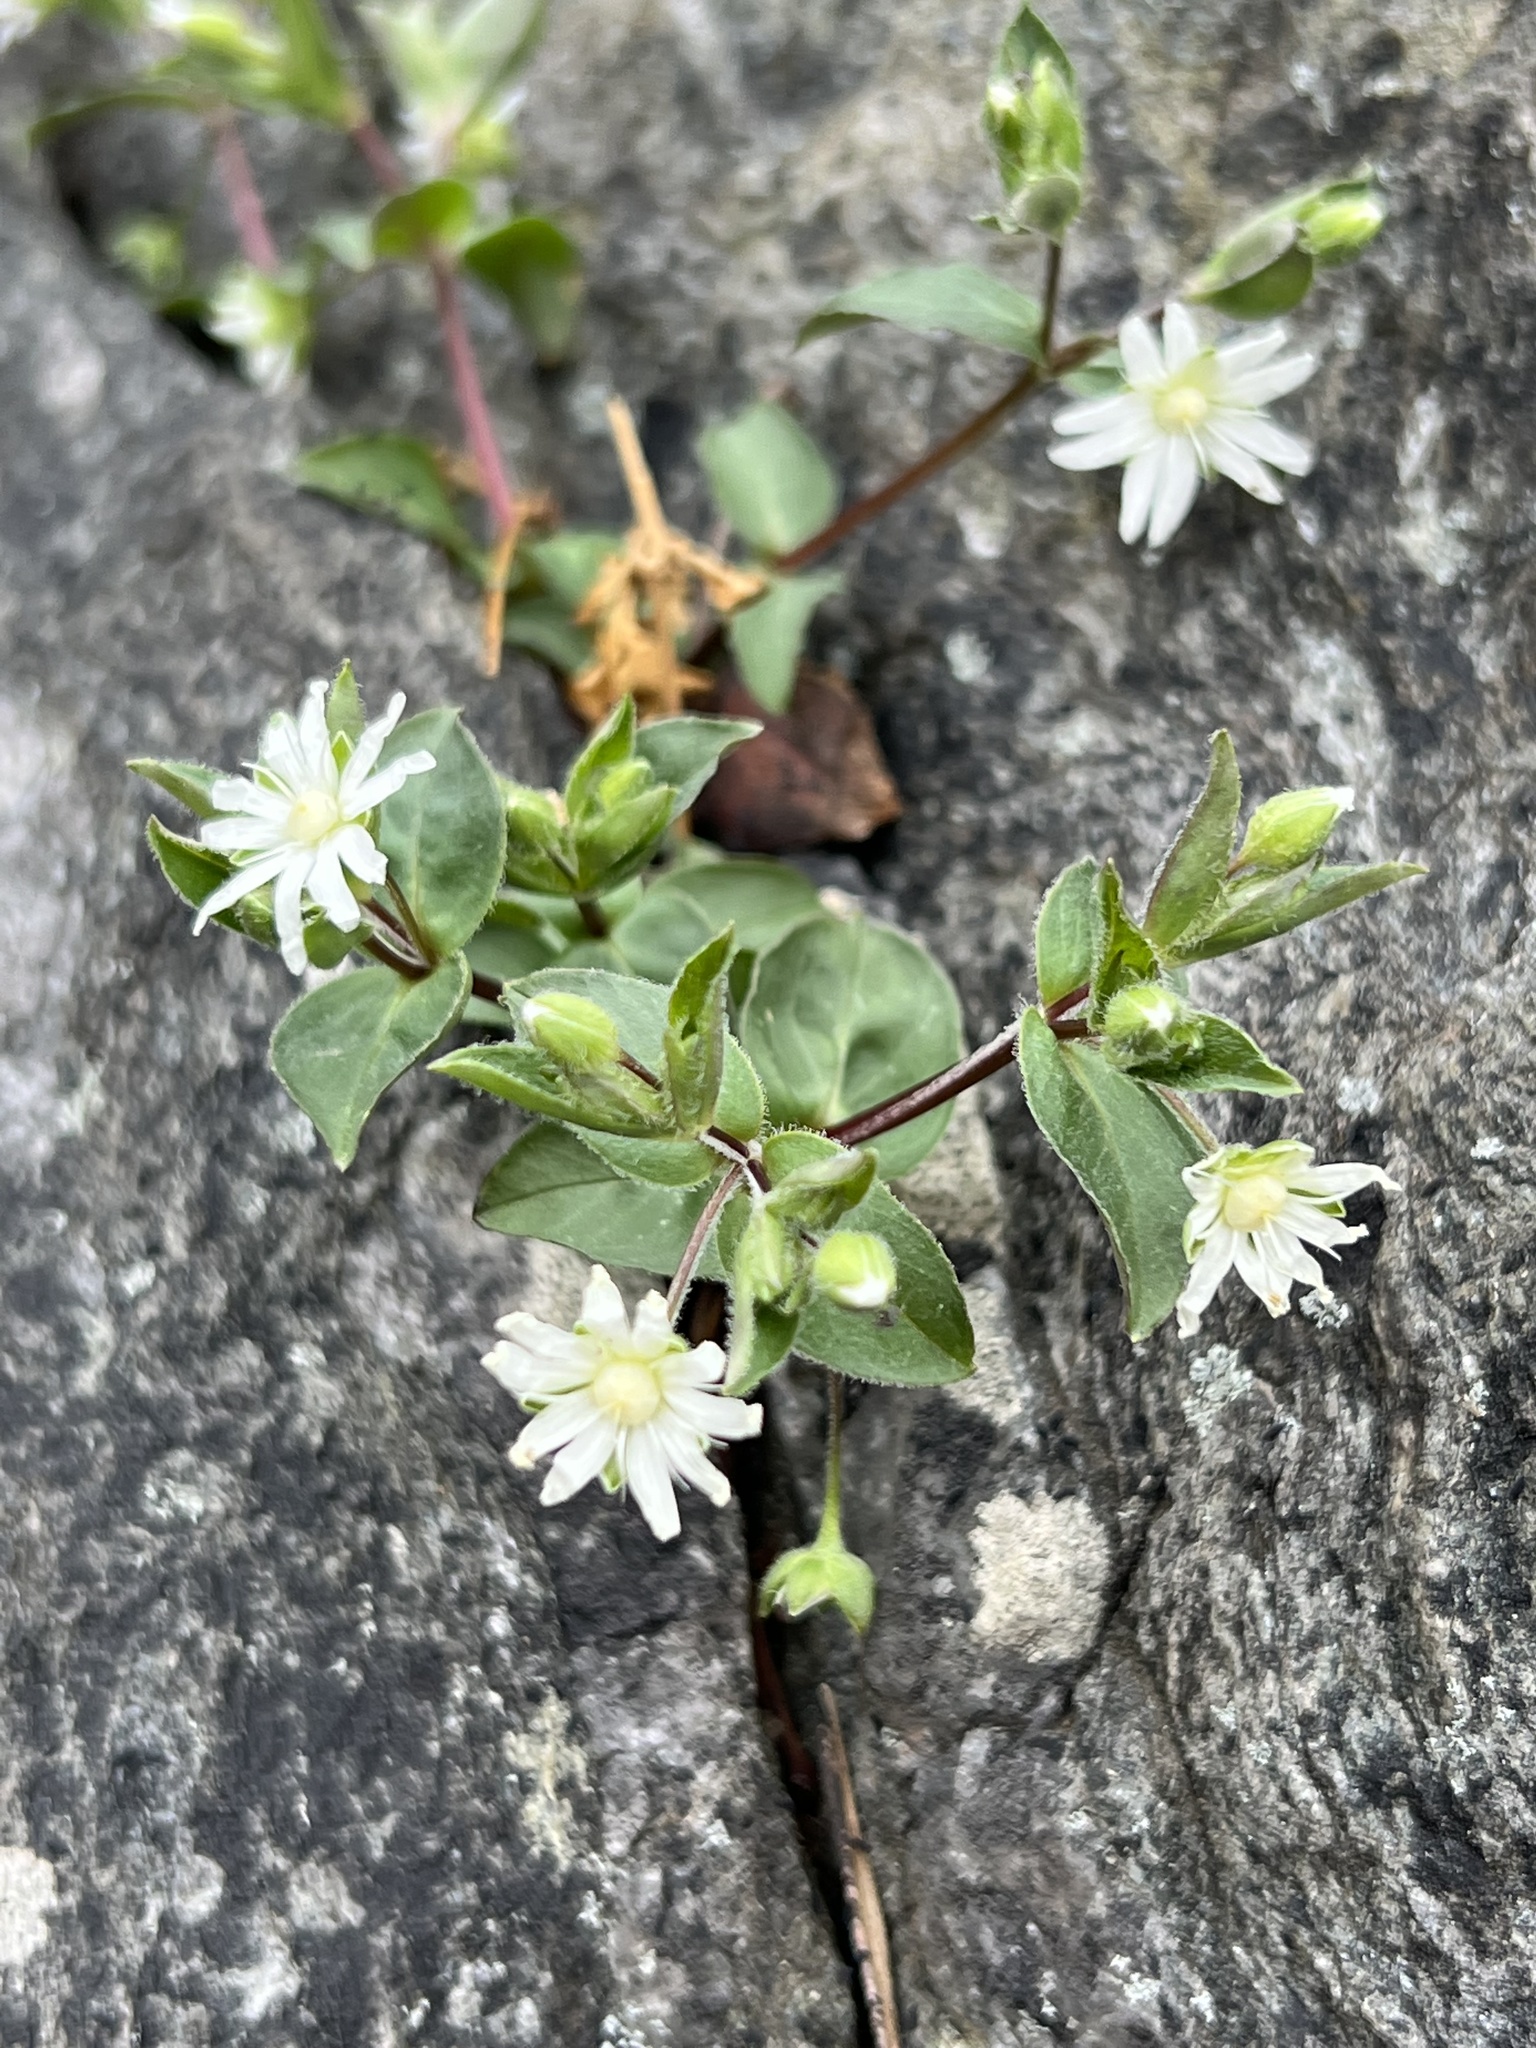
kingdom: Plantae
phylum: Tracheophyta
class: Magnoliopsida
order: Caryophyllales
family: Caryophyllaceae
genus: Stellaria
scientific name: Stellaria pubera
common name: Star chickweed
